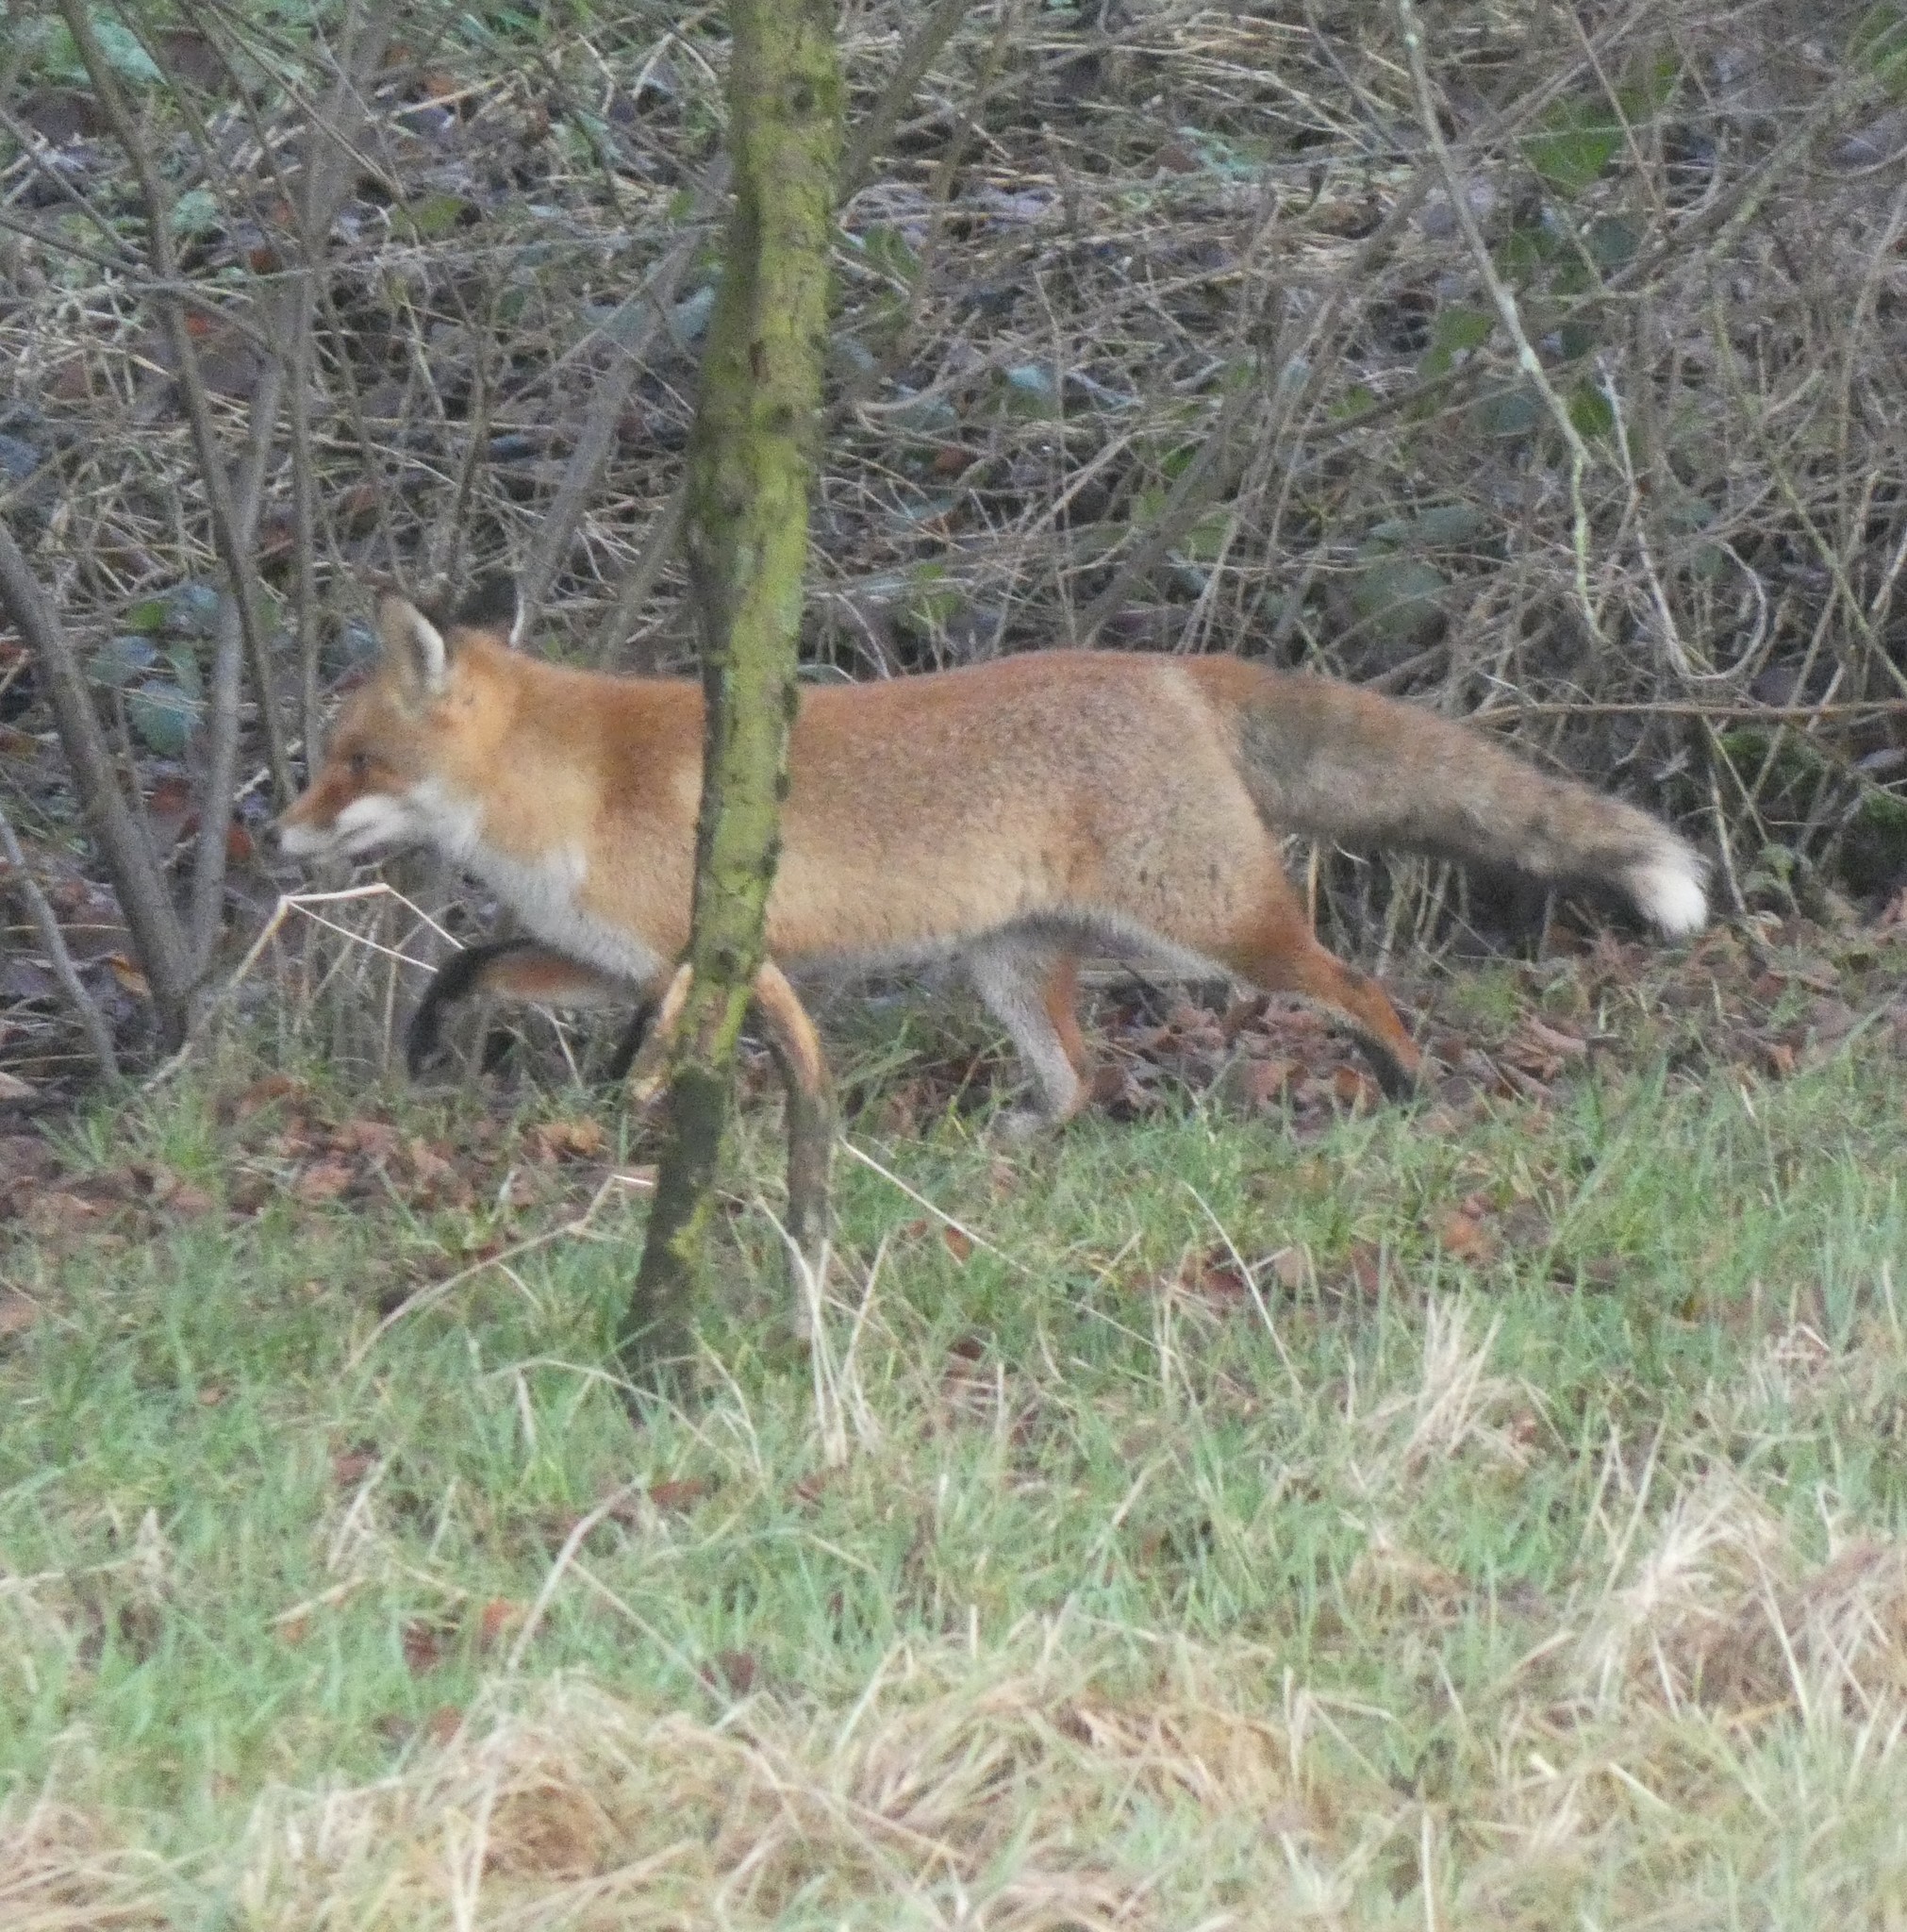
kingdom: Animalia
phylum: Chordata
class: Mammalia
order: Carnivora
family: Canidae
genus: Vulpes
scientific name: Vulpes vulpes
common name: Red fox
